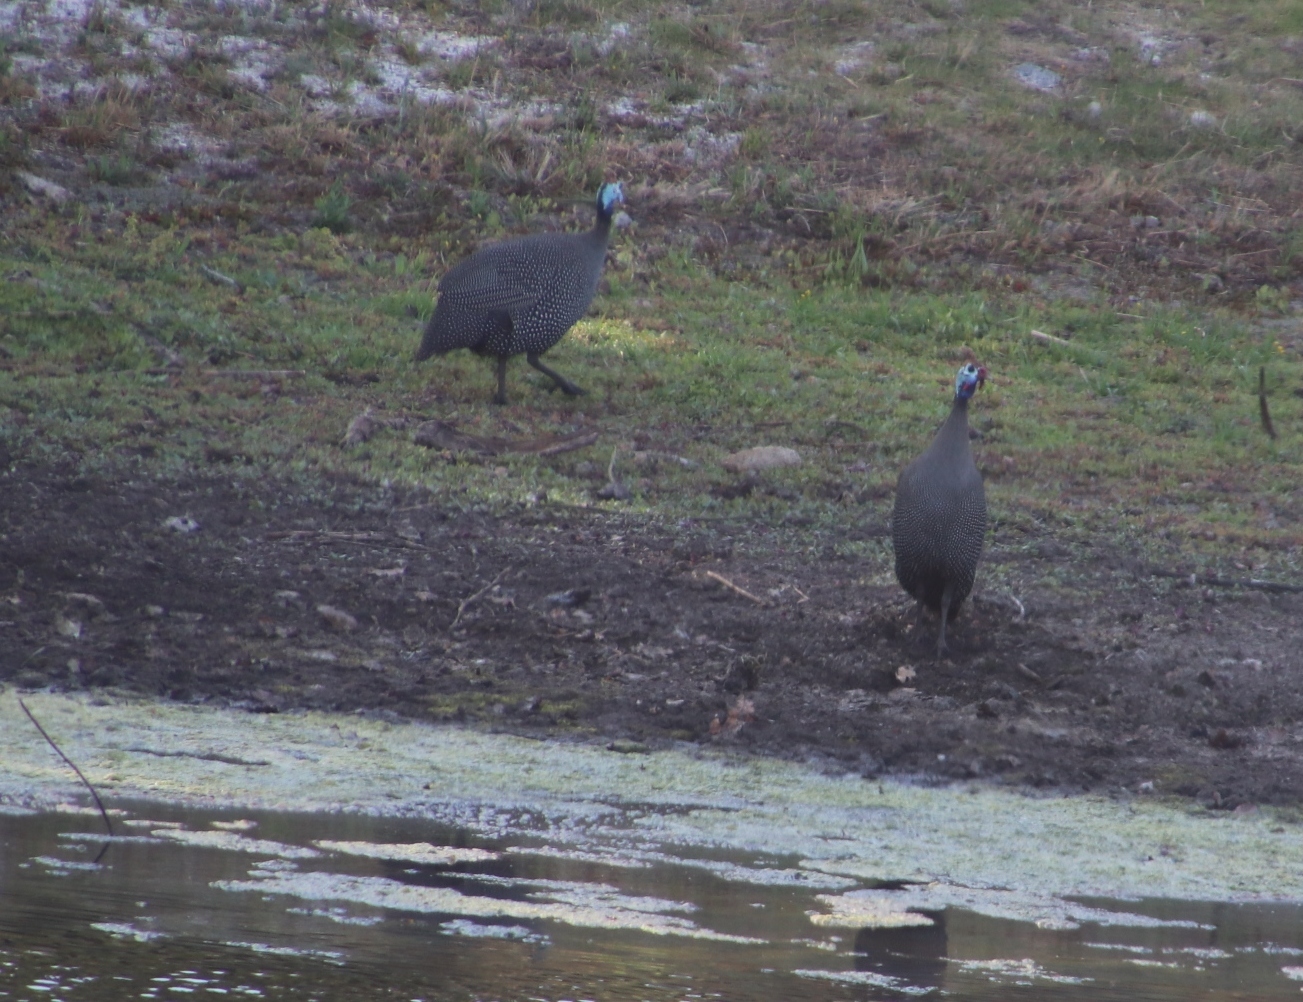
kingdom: Animalia
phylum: Chordata
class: Aves
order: Galliformes
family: Numididae
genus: Numida
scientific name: Numida meleagris
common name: Helmeted guineafowl
